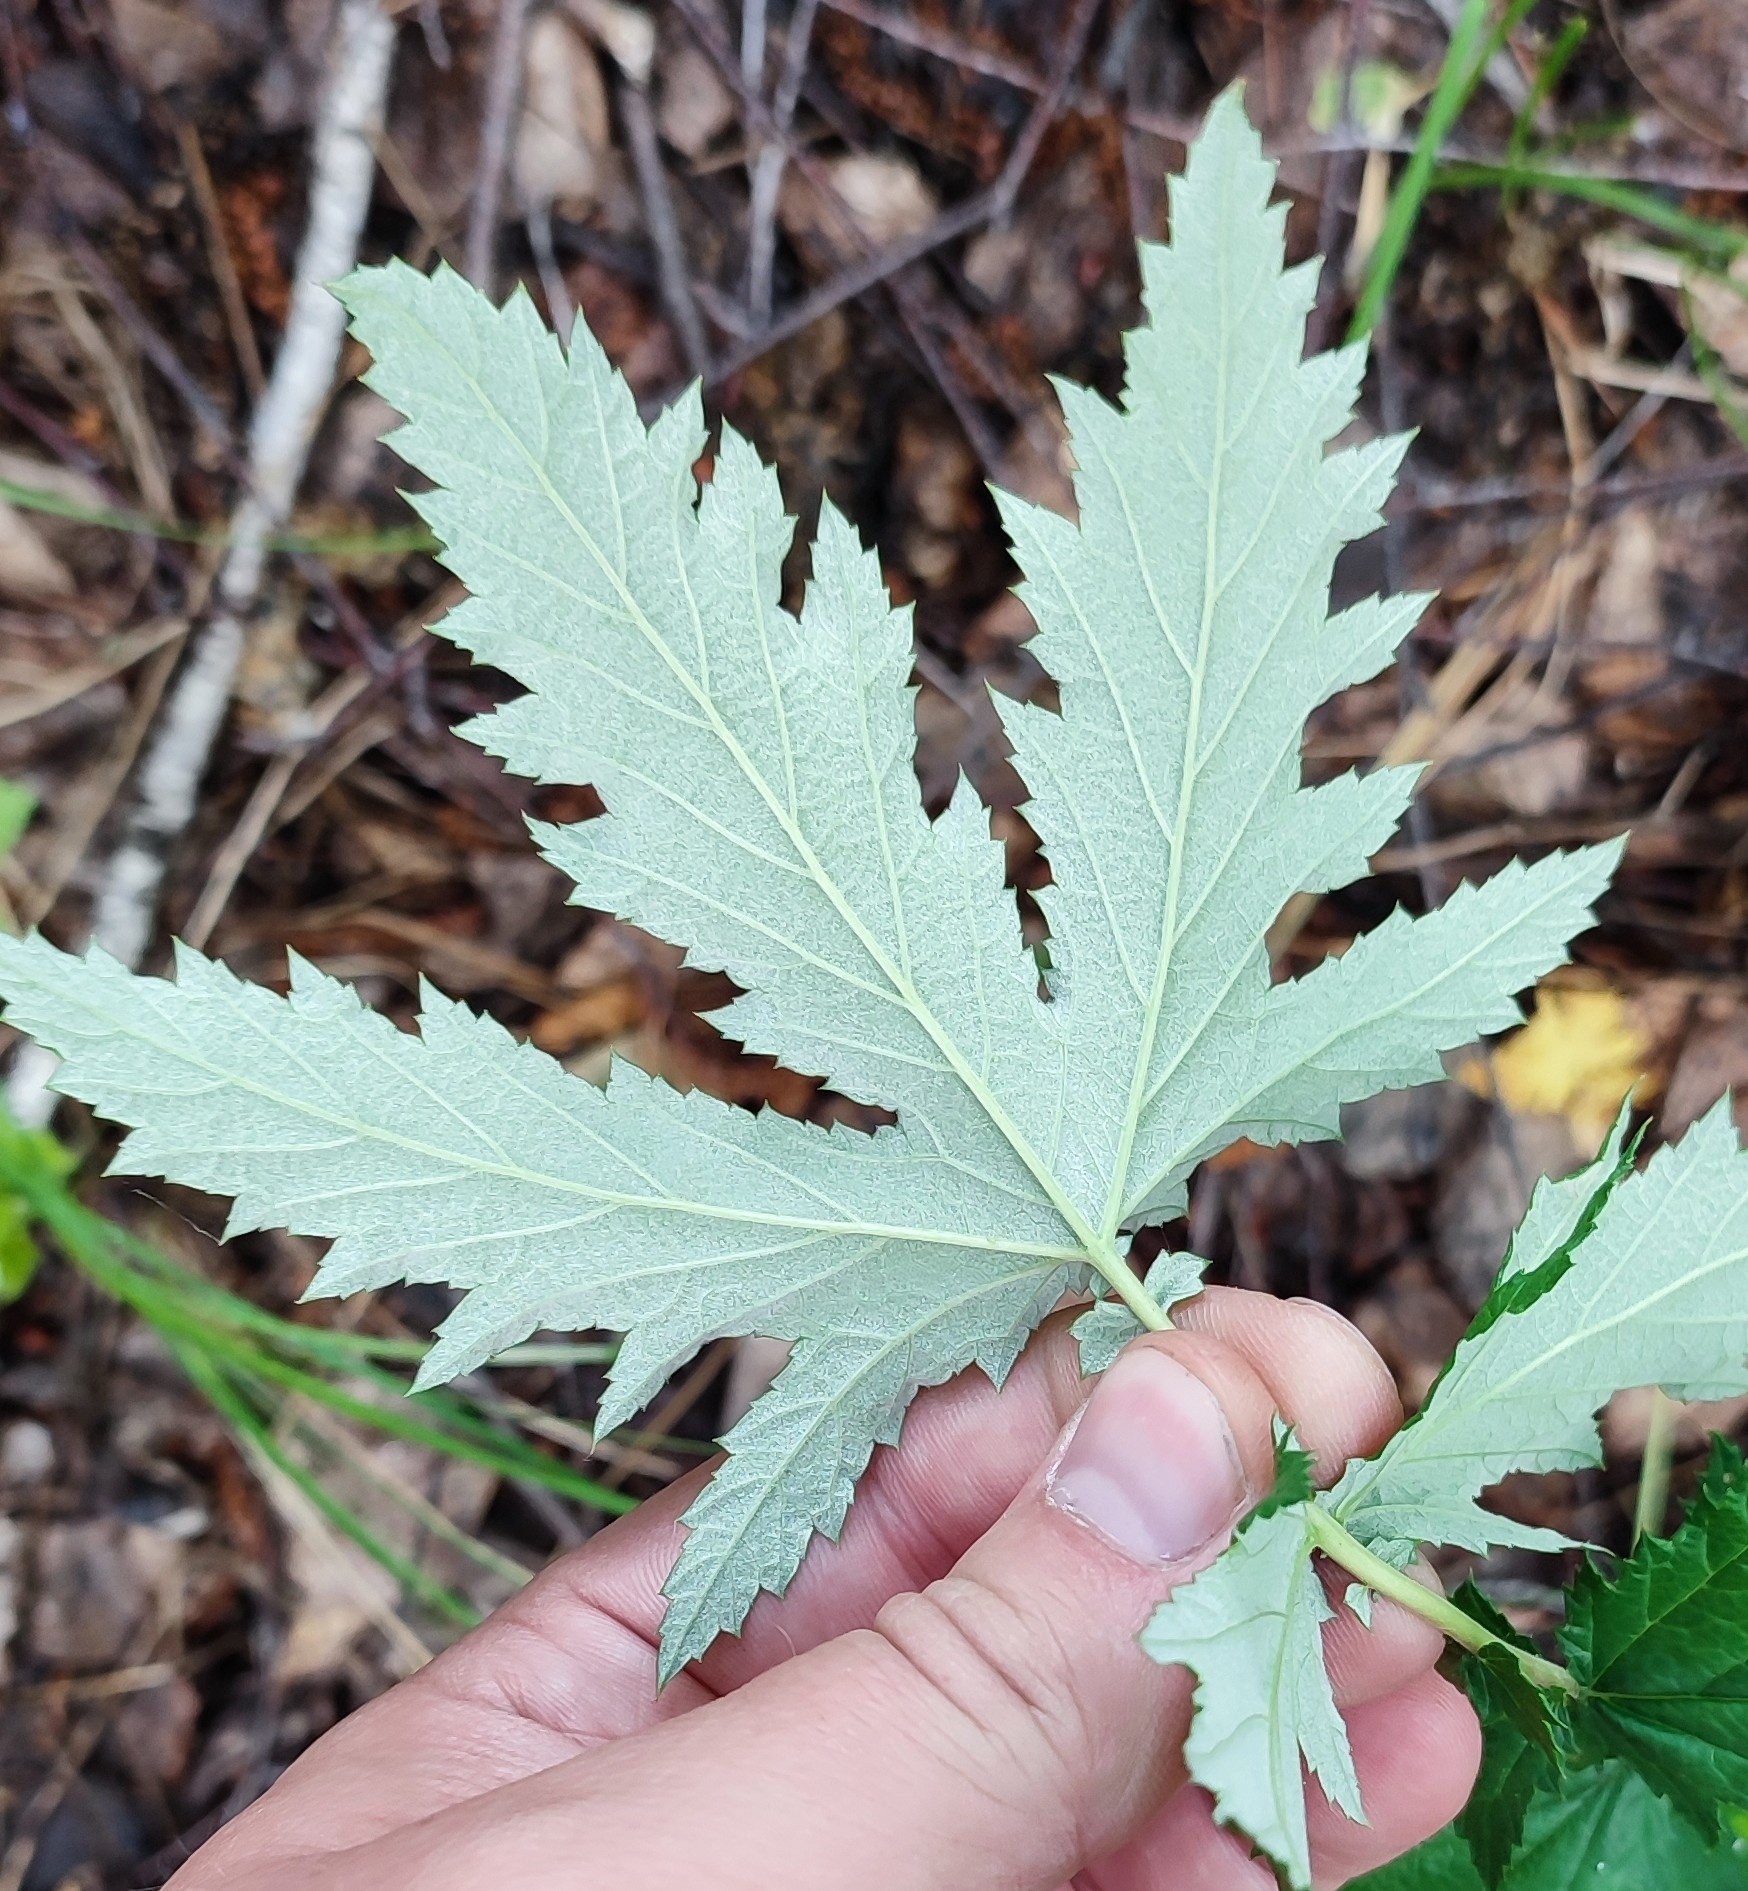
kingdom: Plantae
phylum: Tracheophyta
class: Magnoliopsida
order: Rosales
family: Rosaceae
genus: Filipendula
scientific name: Filipendula ulmaria
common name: Meadowsweet
